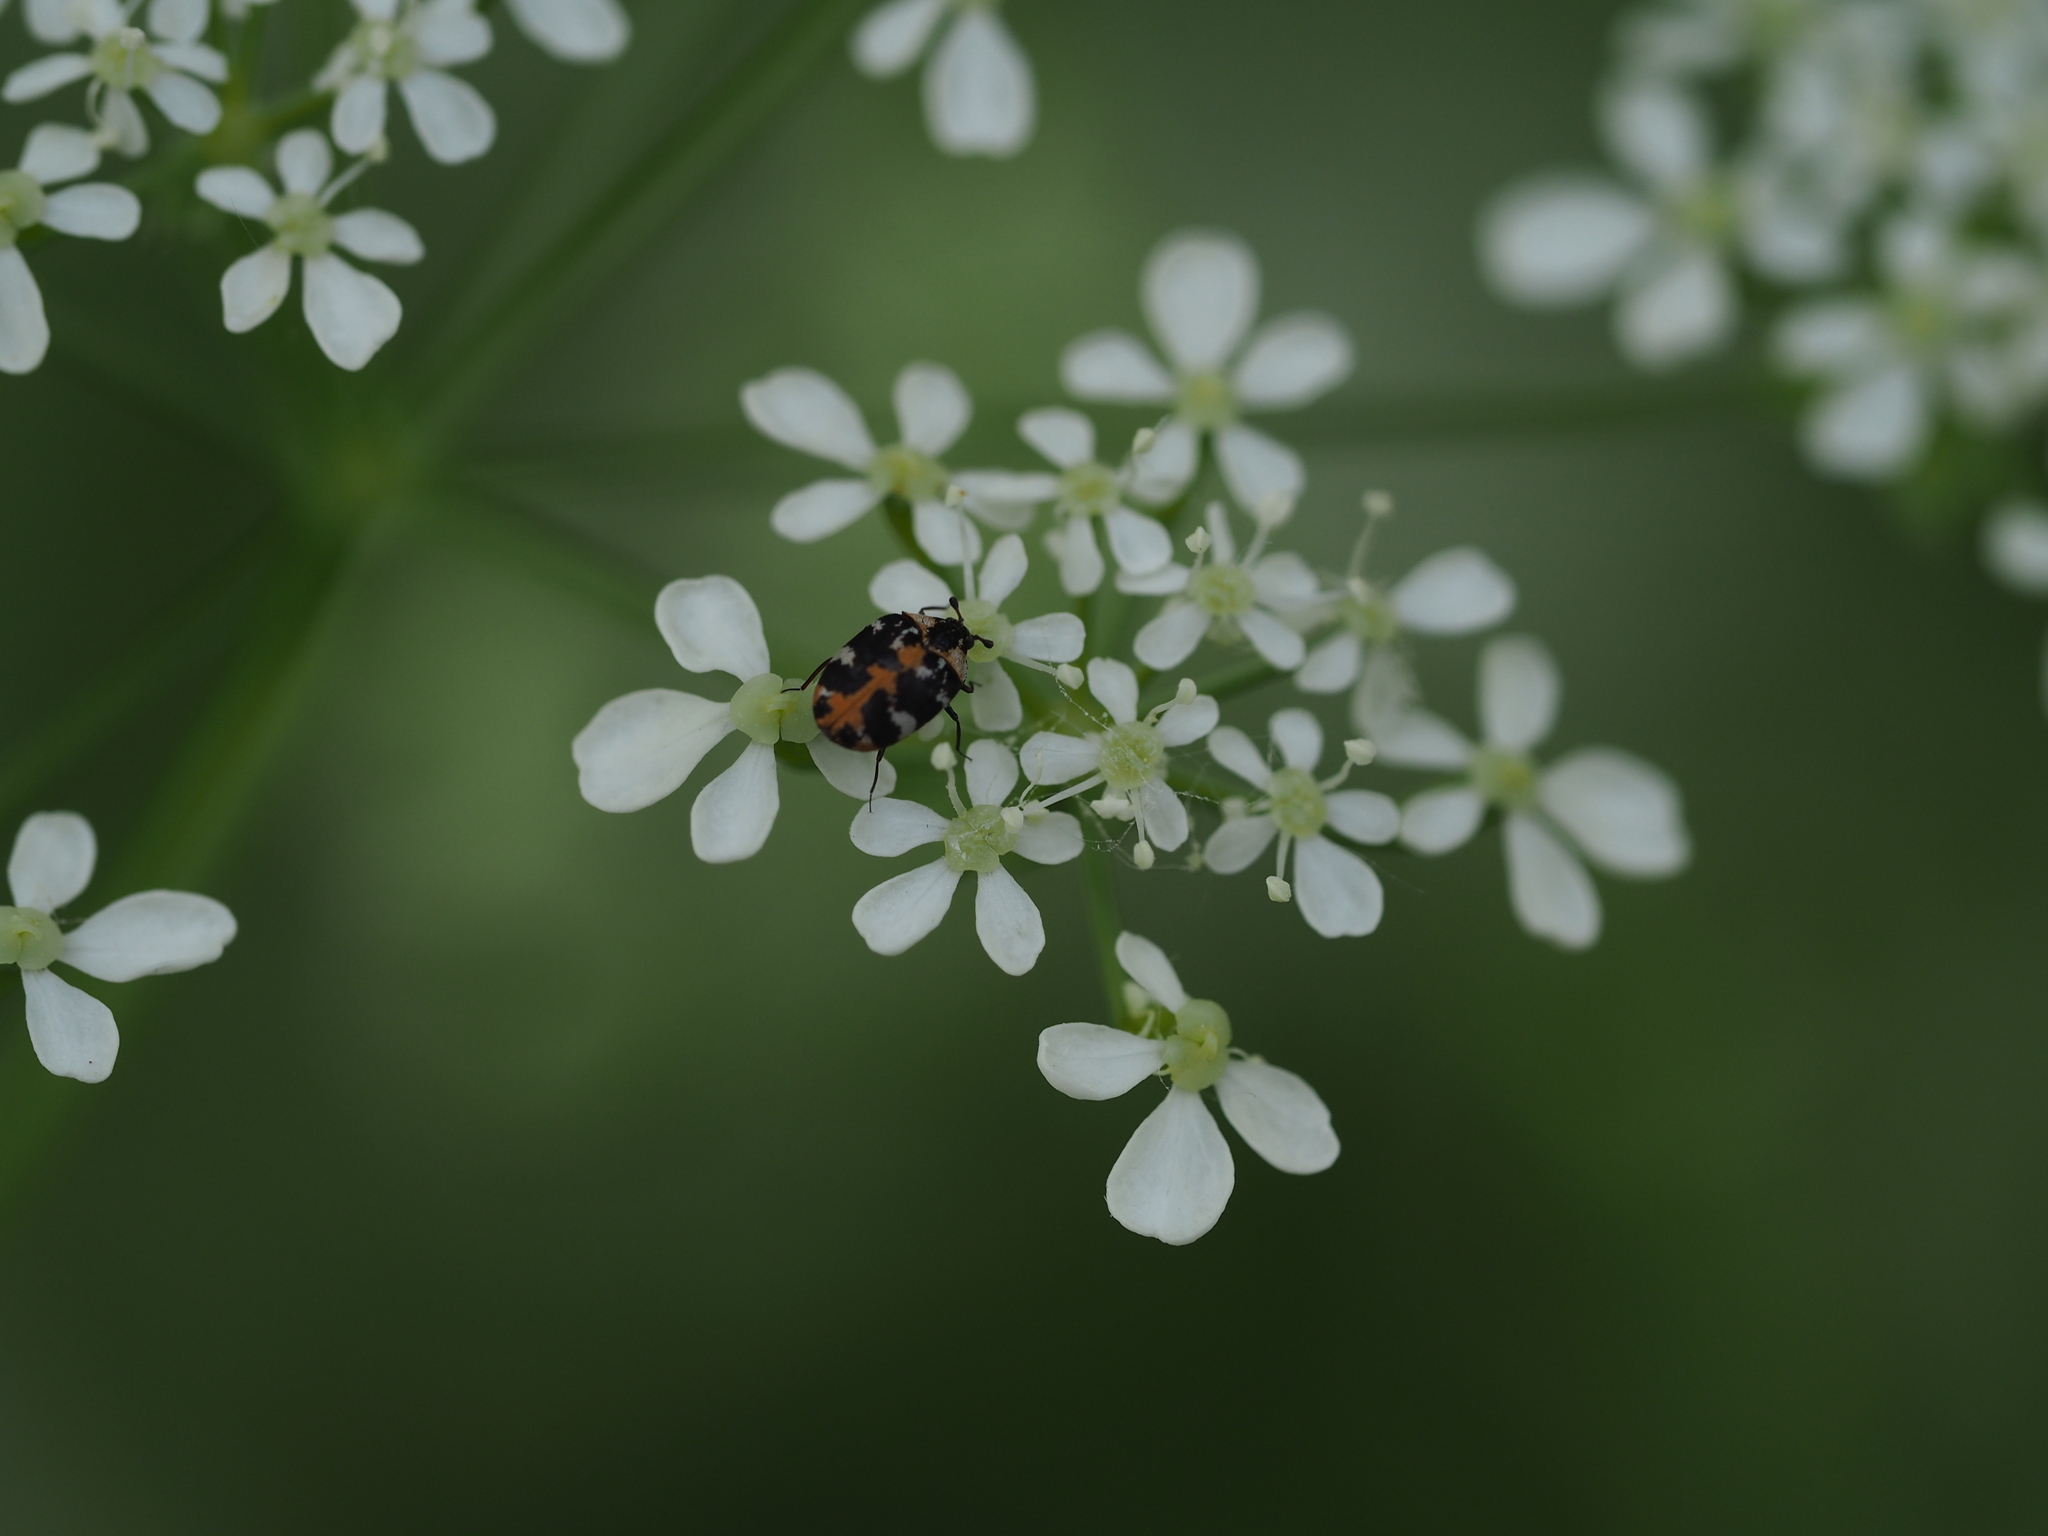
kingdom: Animalia
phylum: Arthropoda
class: Insecta
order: Coleoptera
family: Dermestidae
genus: Anthrenus
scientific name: Anthrenus scrophulariae
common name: Buffalo carpet beetle
